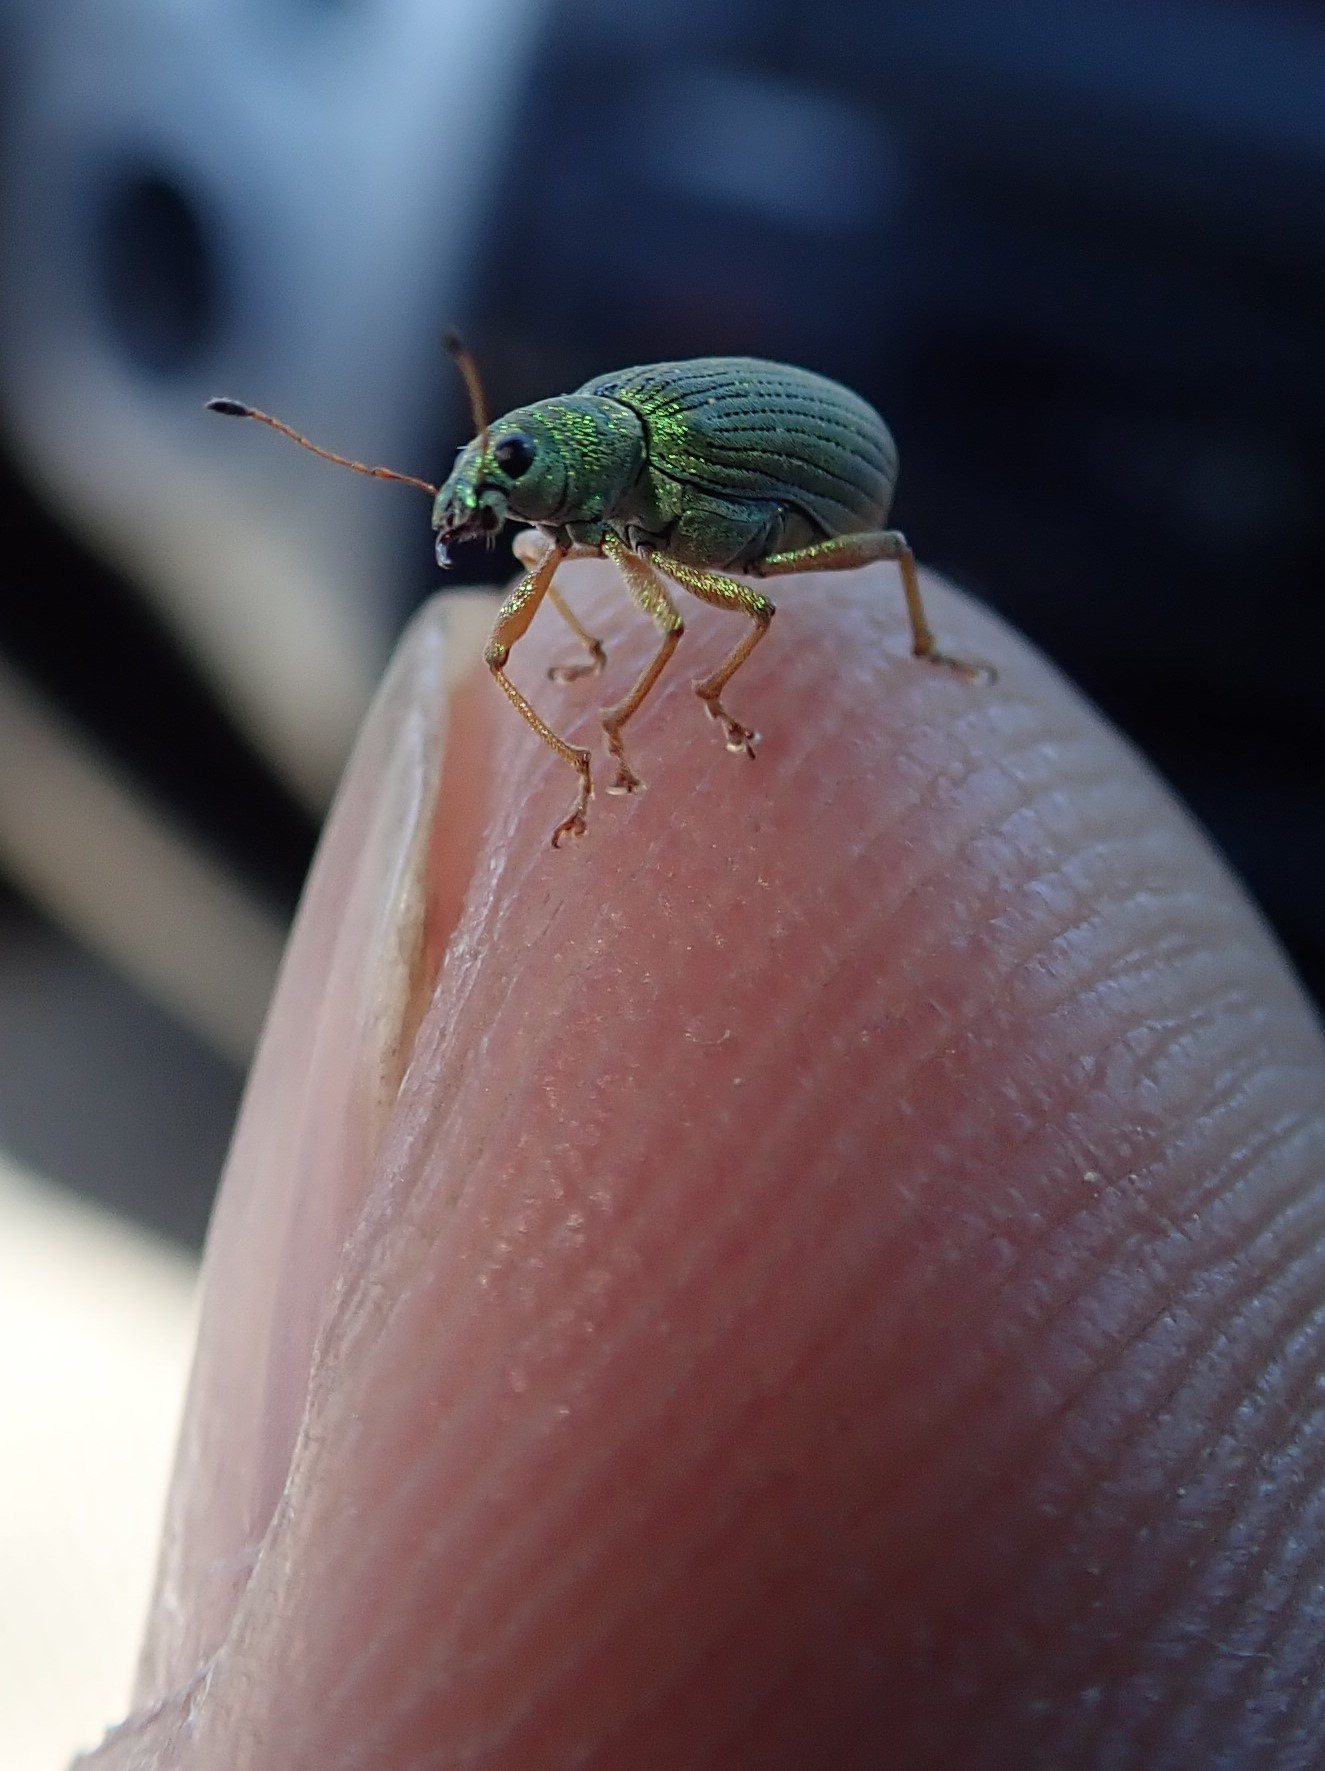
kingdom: Animalia
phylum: Arthropoda
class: Insecta
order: Coleoptera
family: Curculionidae
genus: Polydrusus
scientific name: Polydrusus formosus
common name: Weevil
